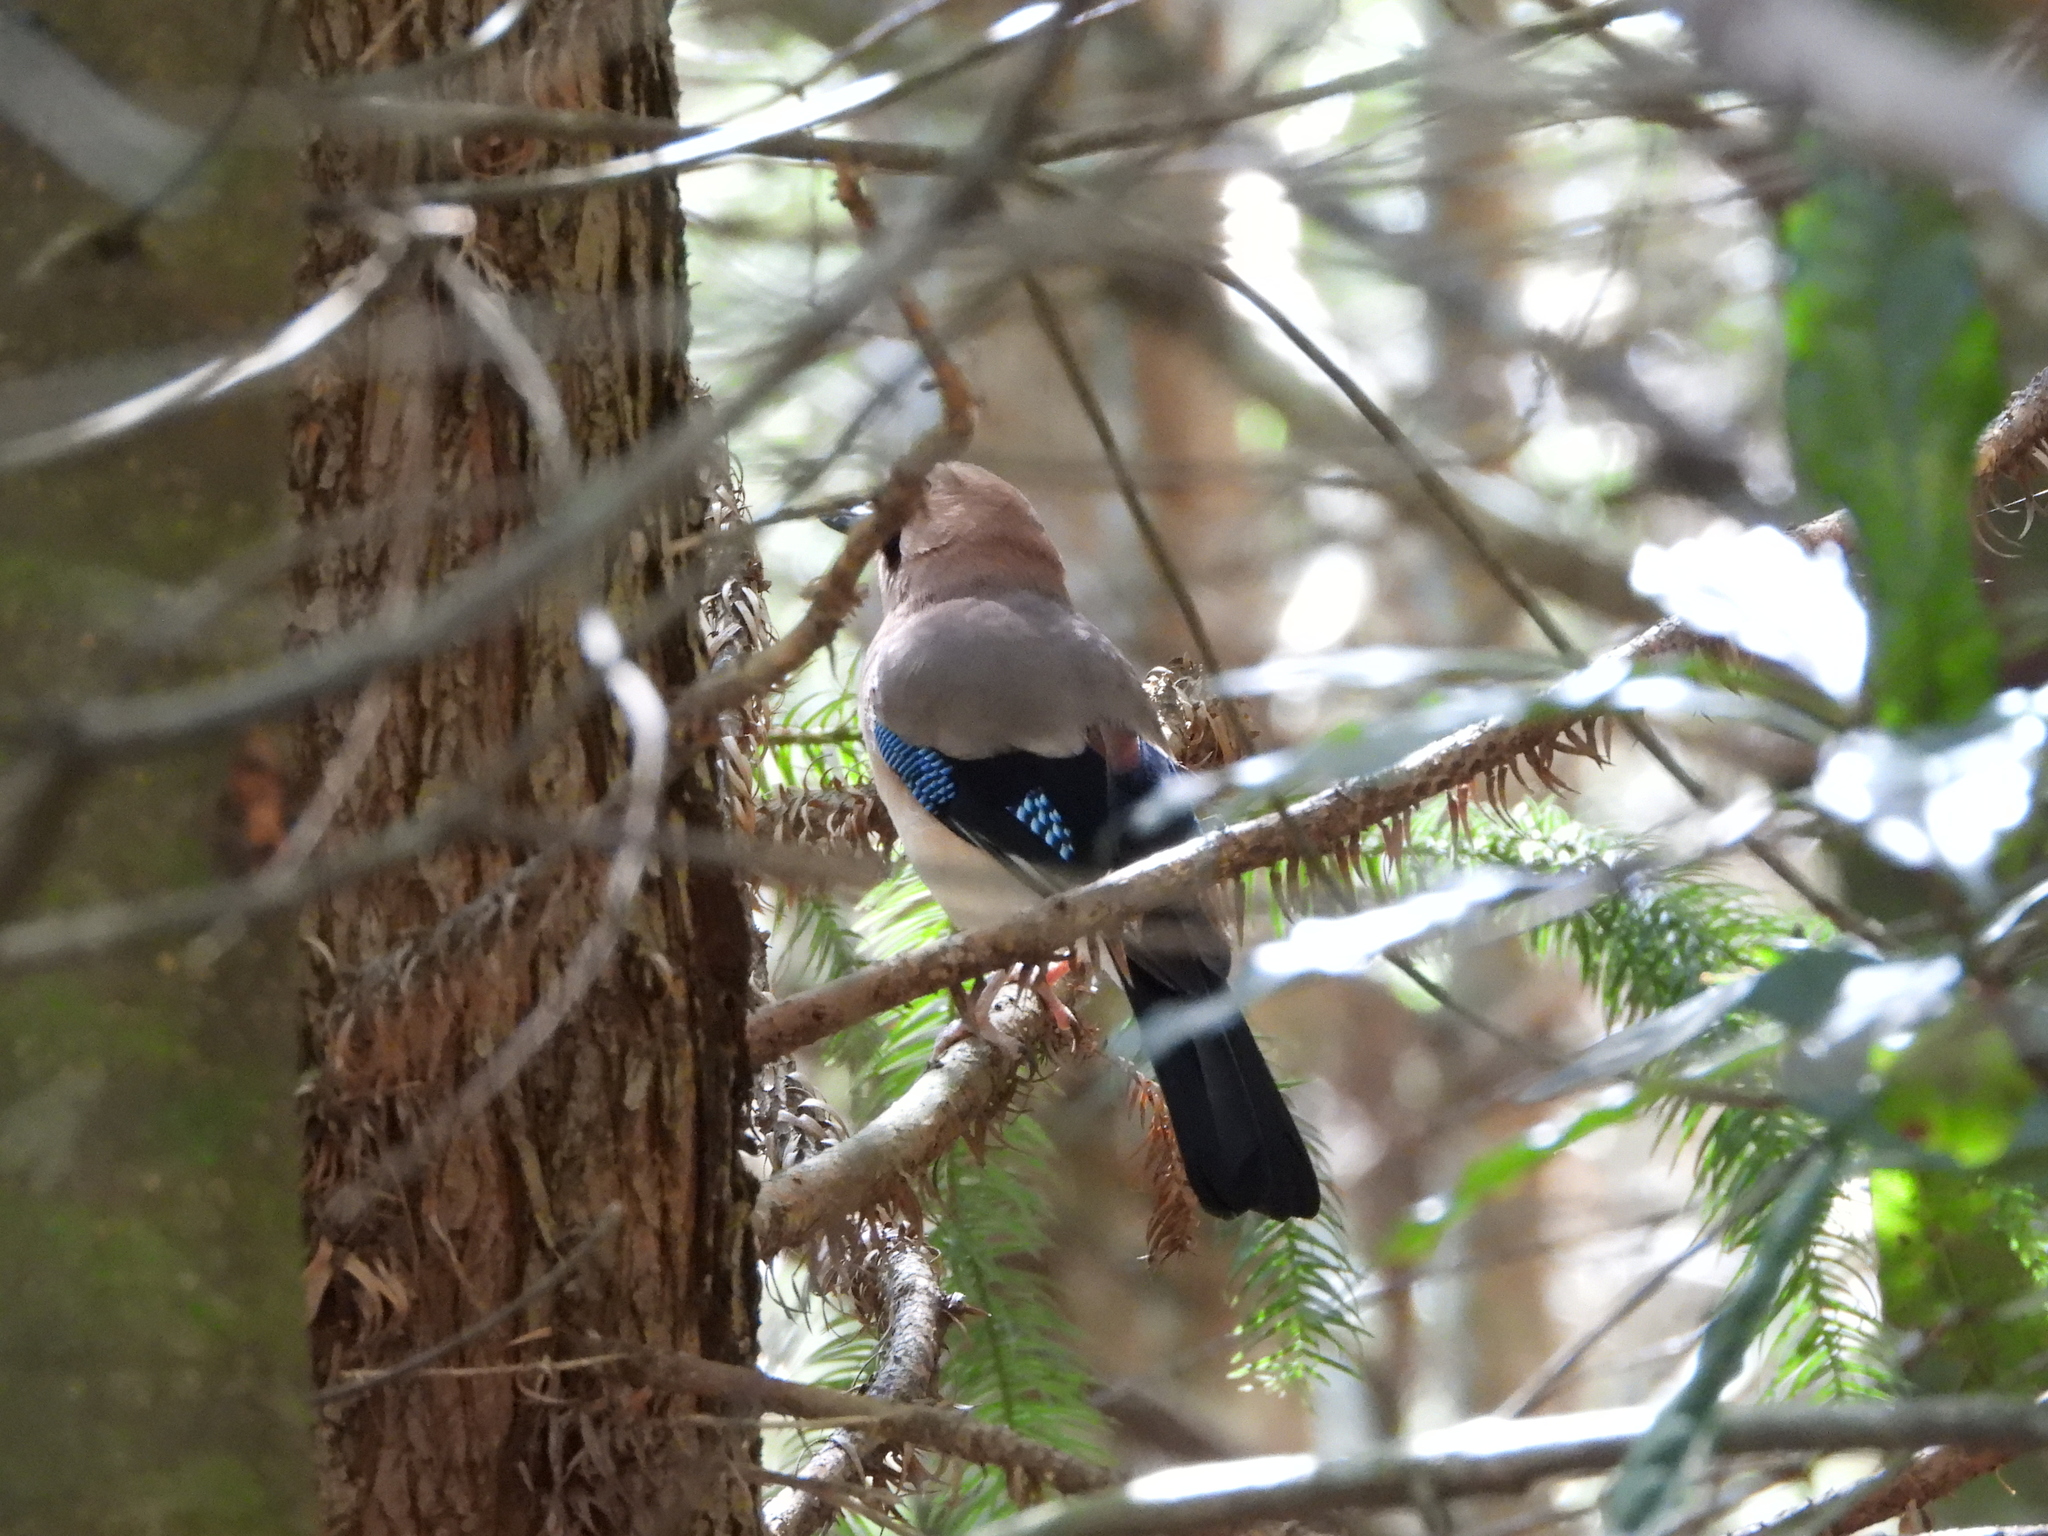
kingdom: Animalia
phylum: Chordata
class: Aves
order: Passeriformes
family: Corvidae
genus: Garrulus
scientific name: Garrulus glandarius
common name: Eurasian jay
